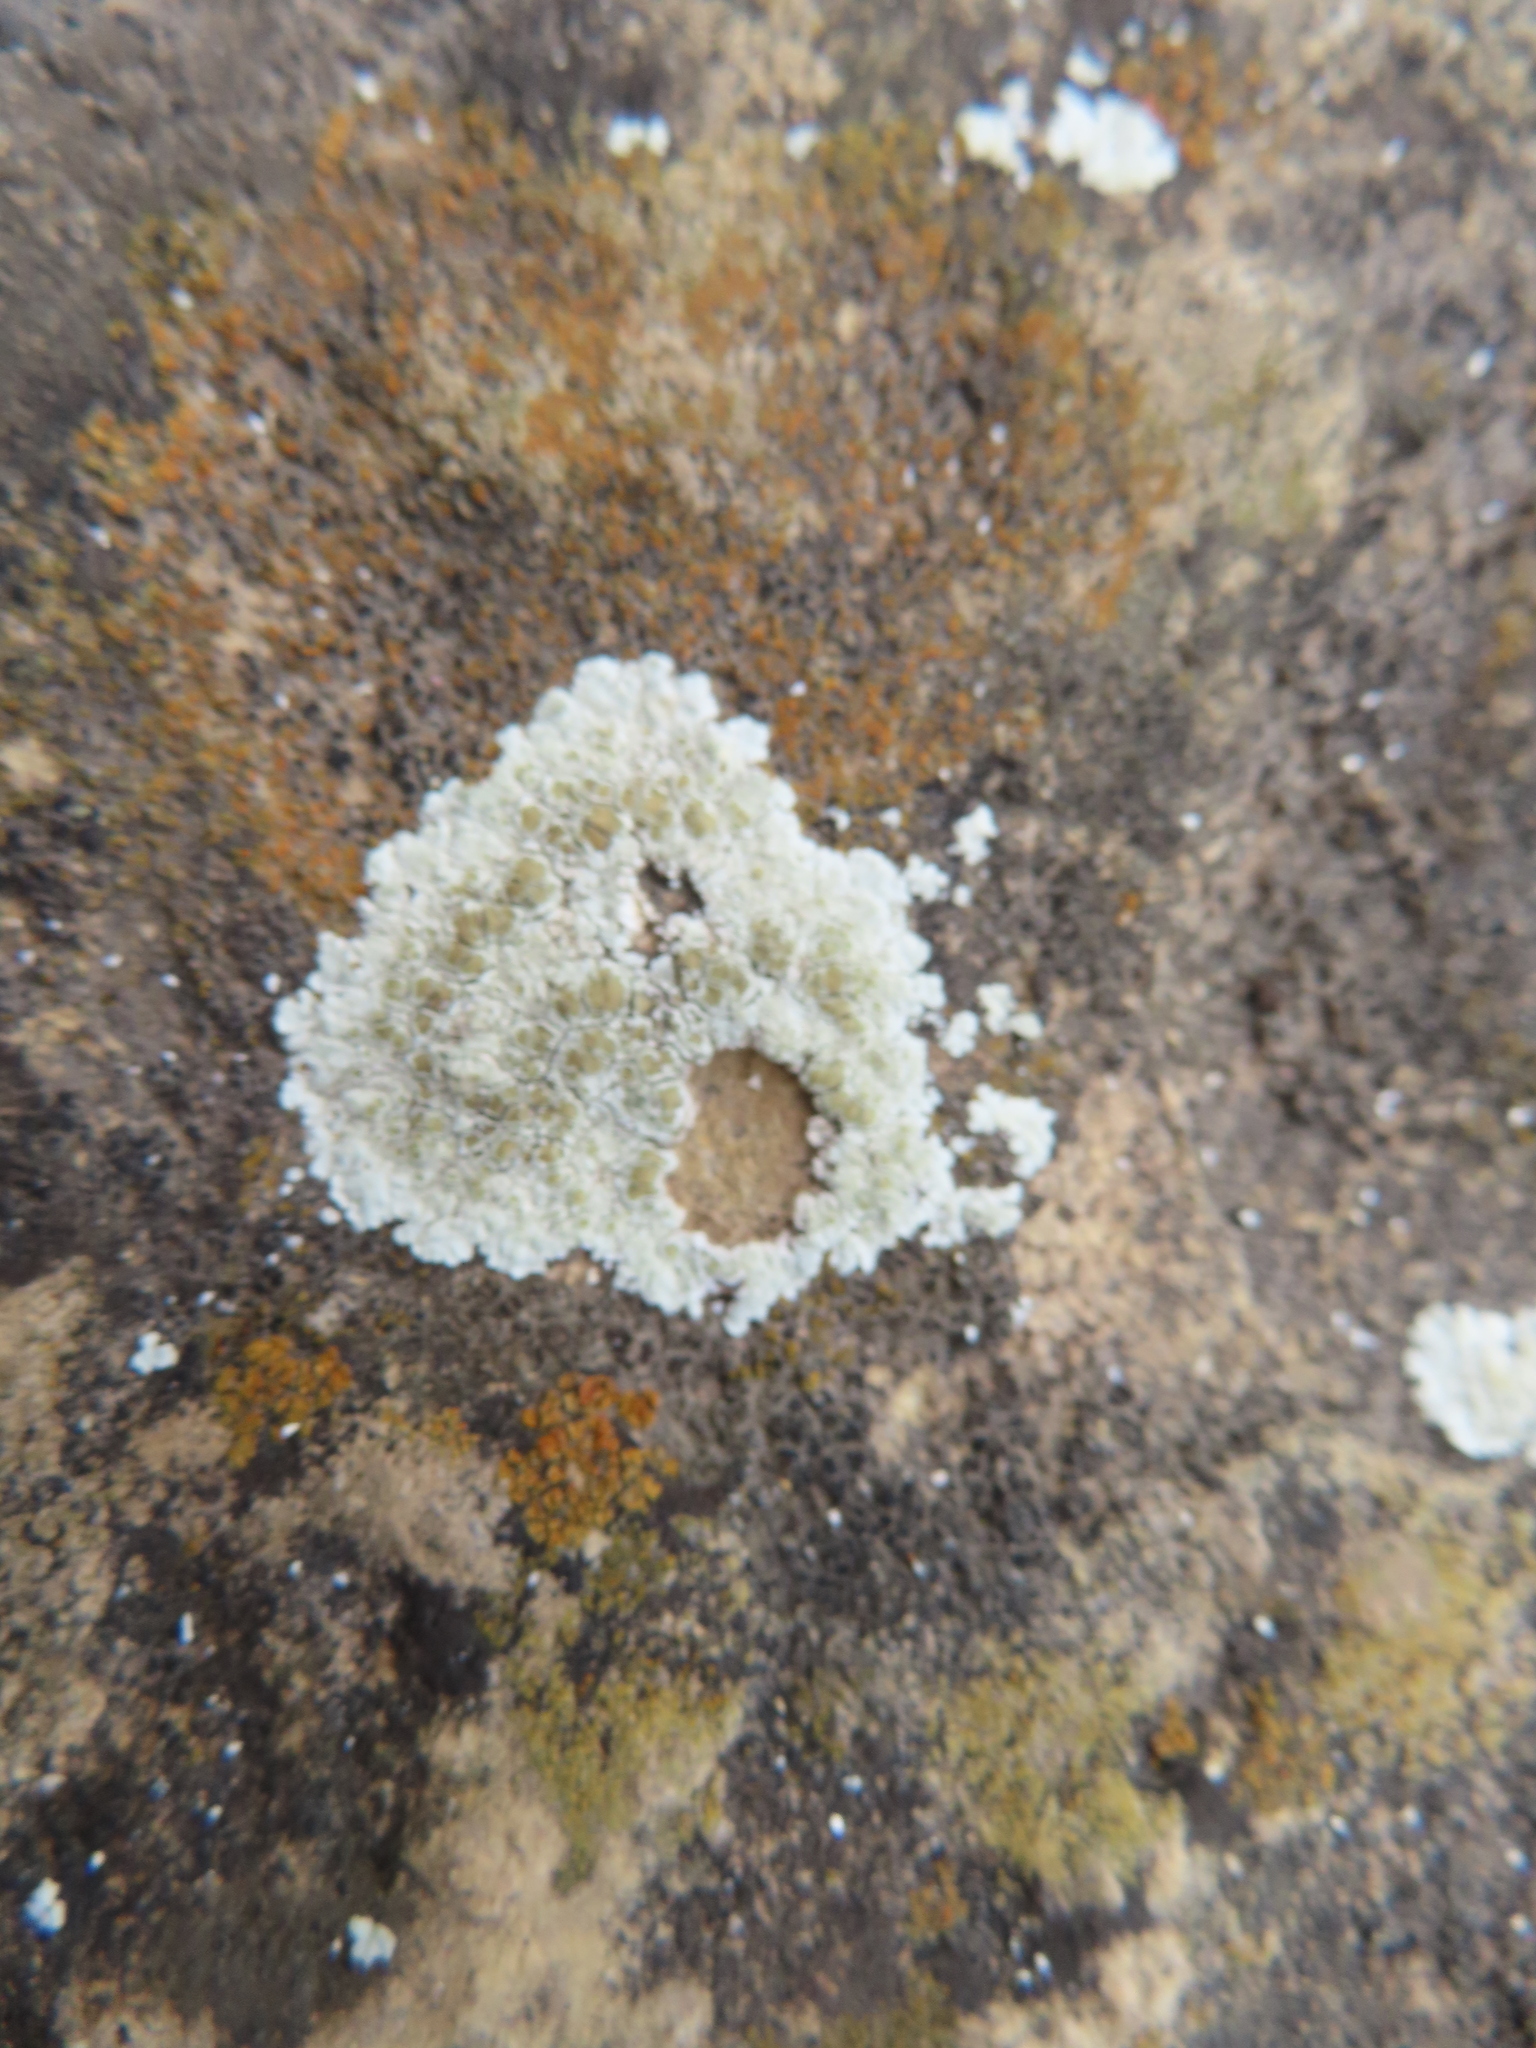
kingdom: Fungi
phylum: Ascomycota
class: Lecanoromycetes
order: Lecanorales
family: Lecanoraceae
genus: Protoparmeliopsis
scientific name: Protoparmeliopsis muralis
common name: Stonewall rim lichen
